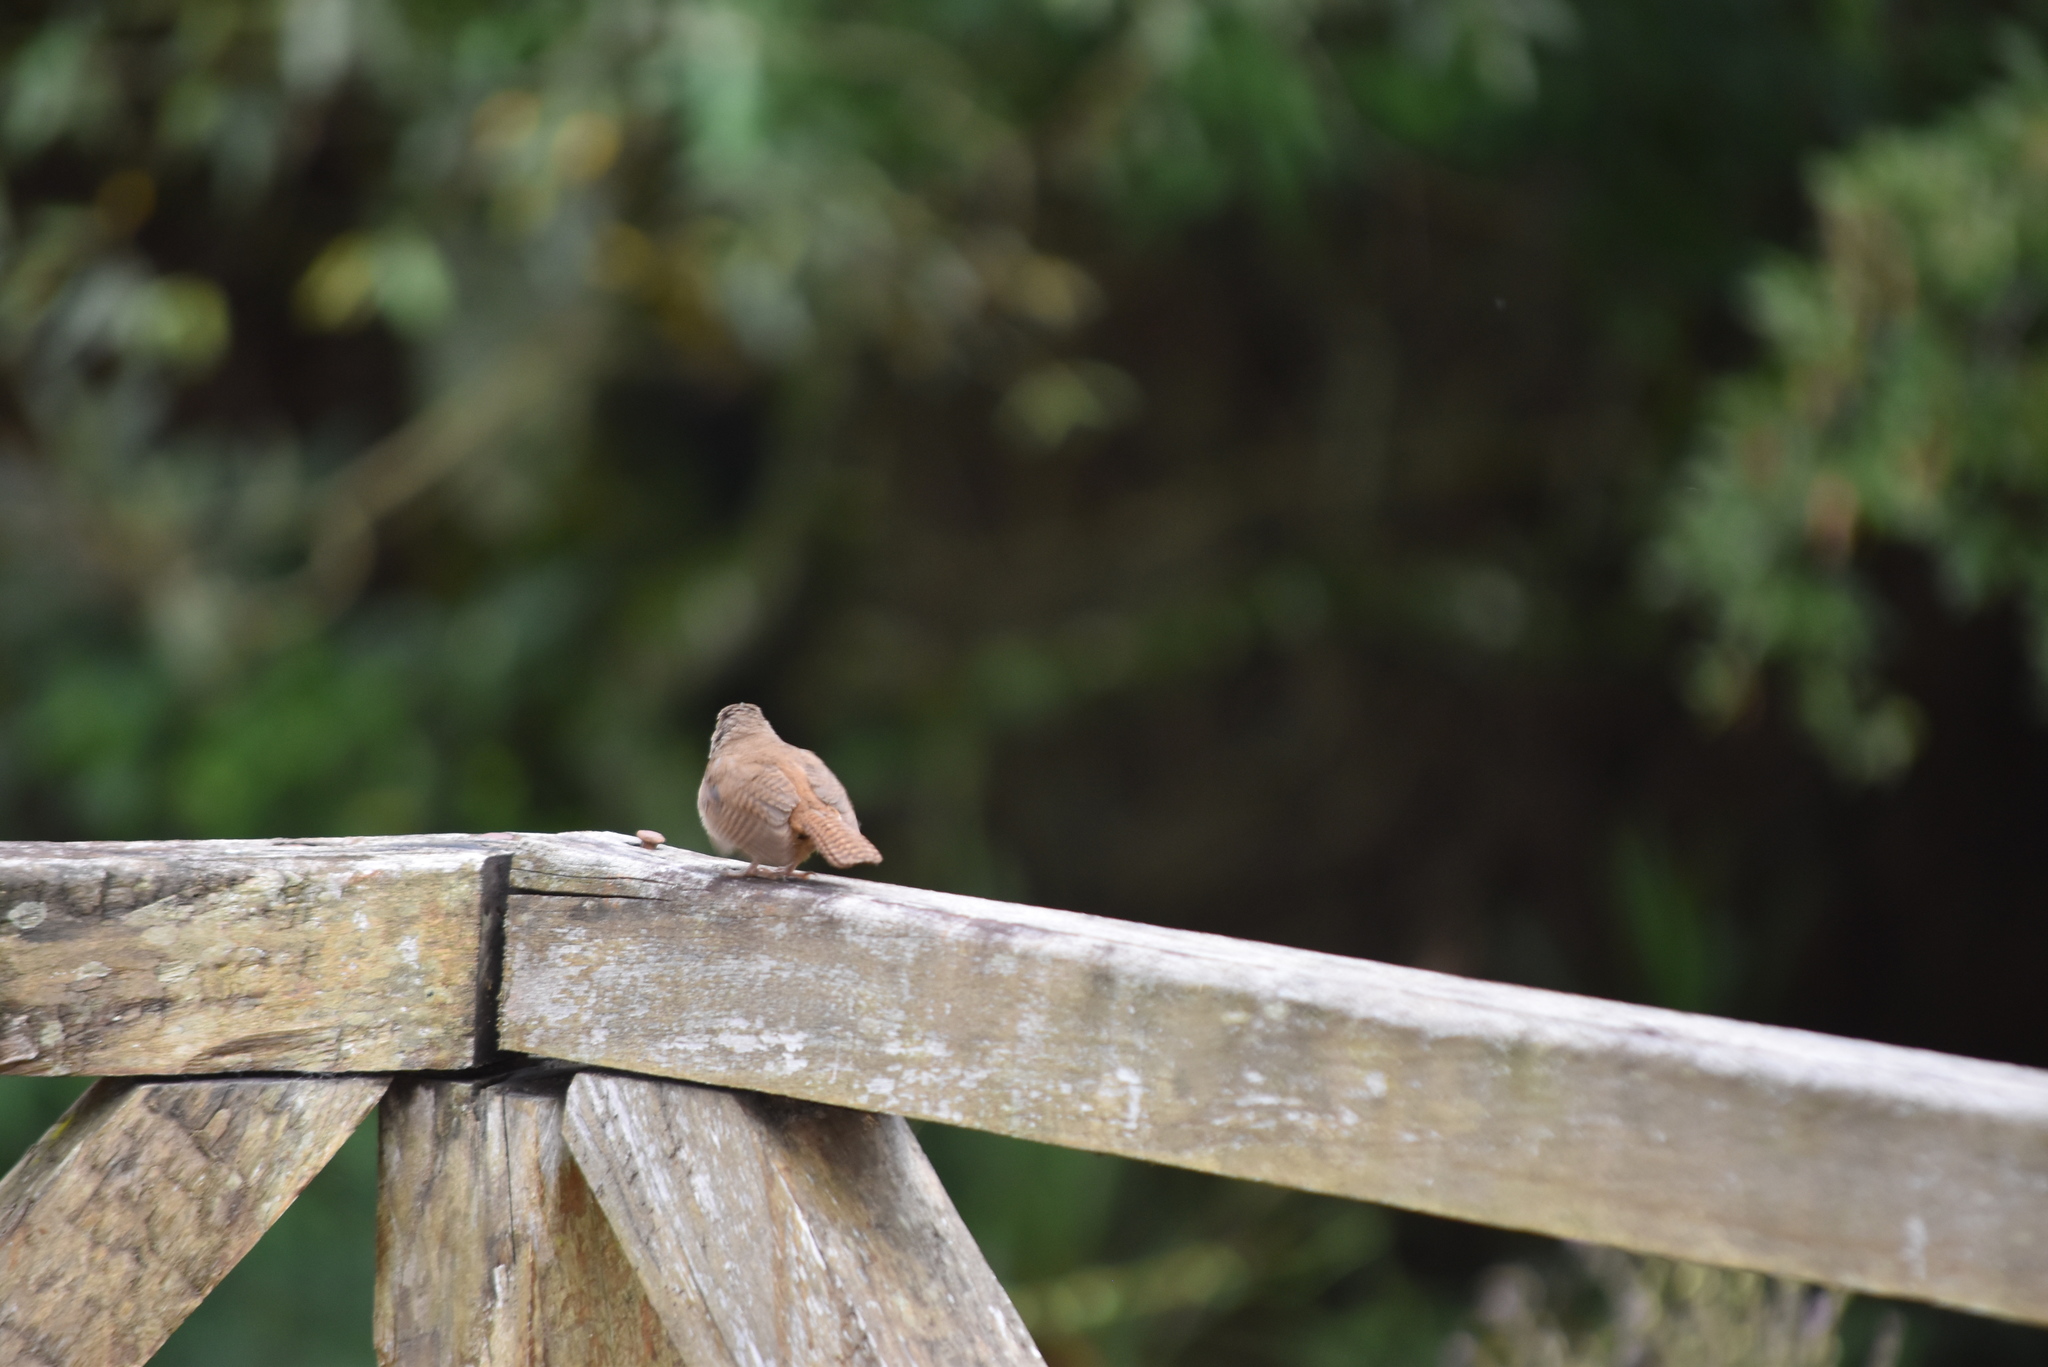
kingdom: Animalia
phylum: Chordata
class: Aves
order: Passeriformes
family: Troglodytidae
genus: Troglodytes
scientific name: Troglodytes aedon
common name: House wren
